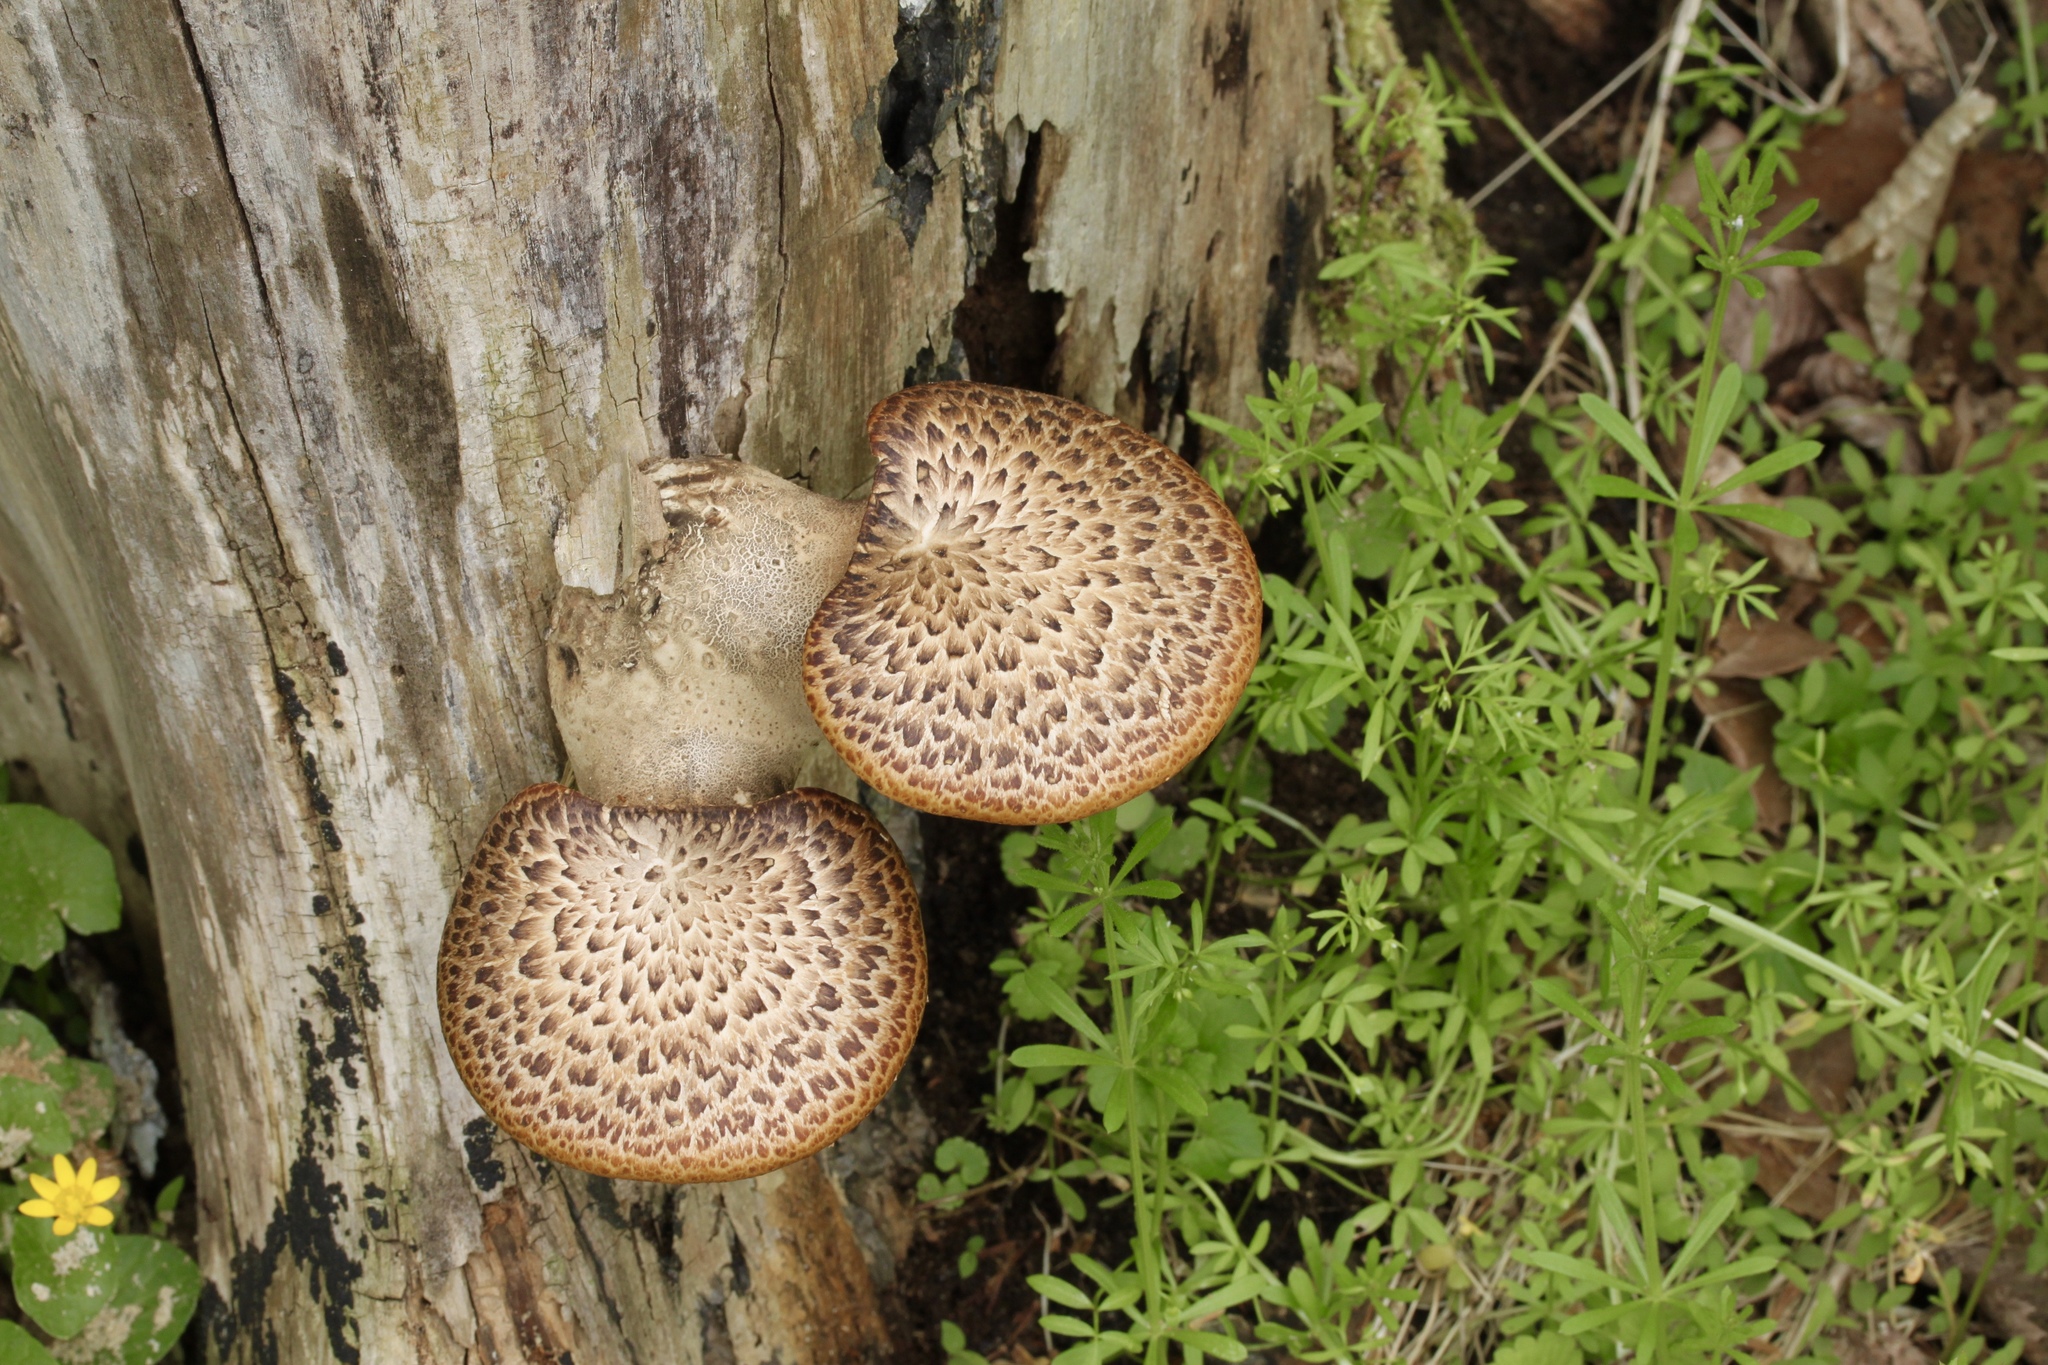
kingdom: Fungi
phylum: Basidiomycota
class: Agaricomycetes
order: Polyporales
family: Polyporaceae
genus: Cerioporus
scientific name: Cerioporus squamosus
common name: Dryad's saddle
